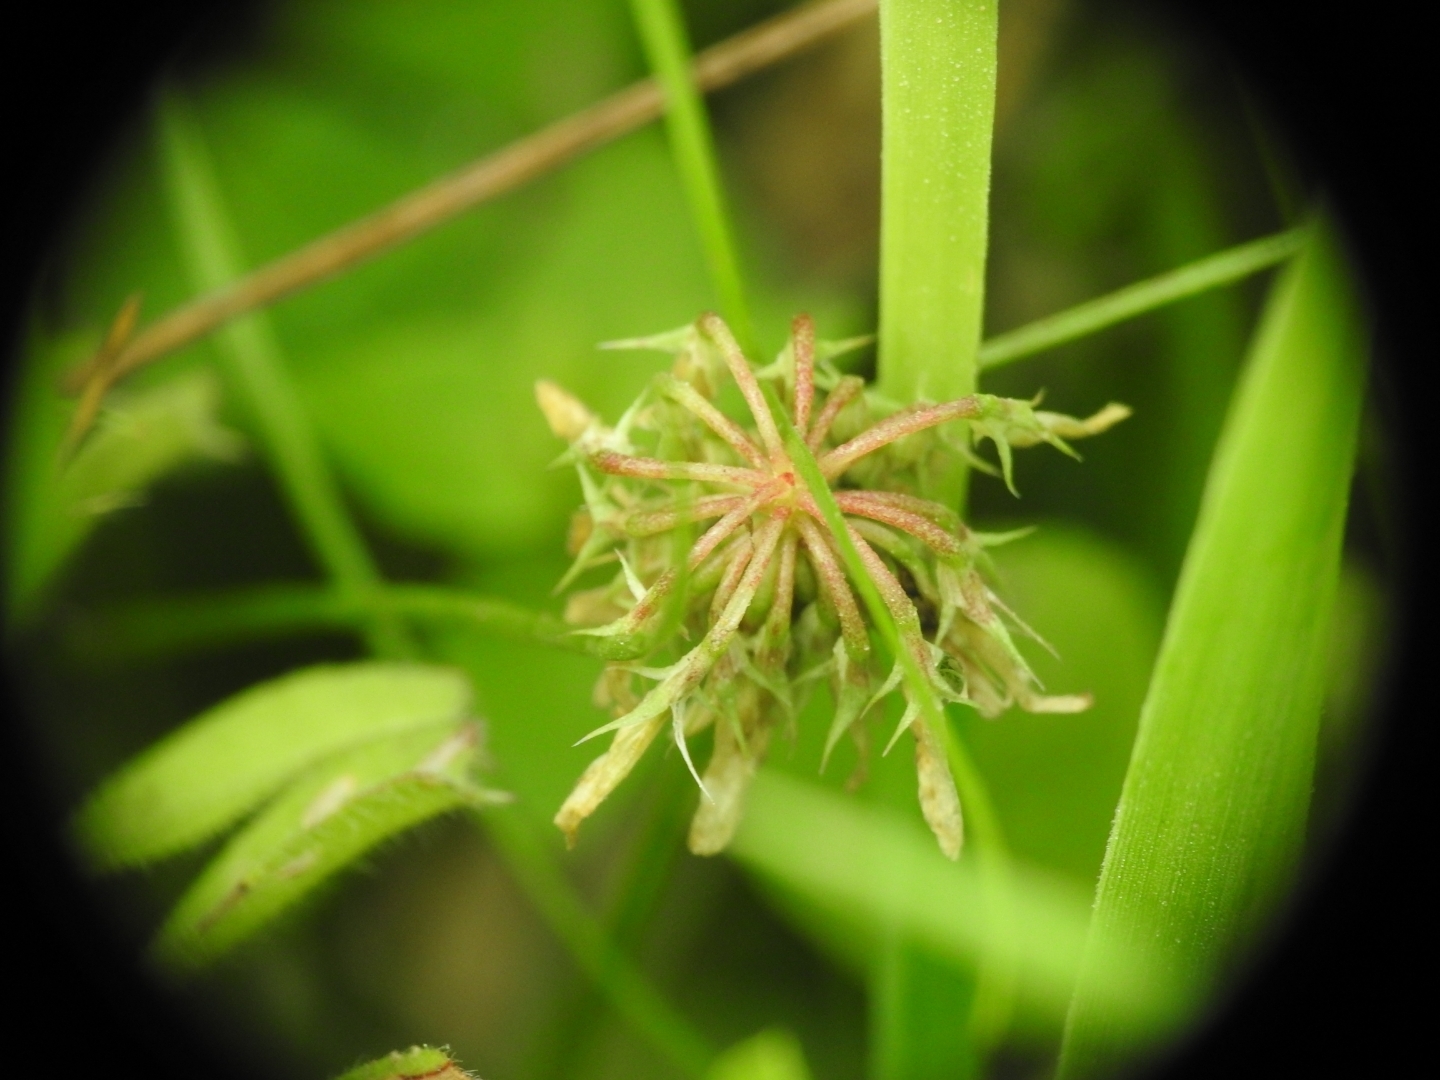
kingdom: Plantae
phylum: Tracheophyta
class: Magnoliopsida
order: Fabales
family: Fabaceae
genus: Trifolium
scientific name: Trifolium nigrescens
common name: Small white clover
